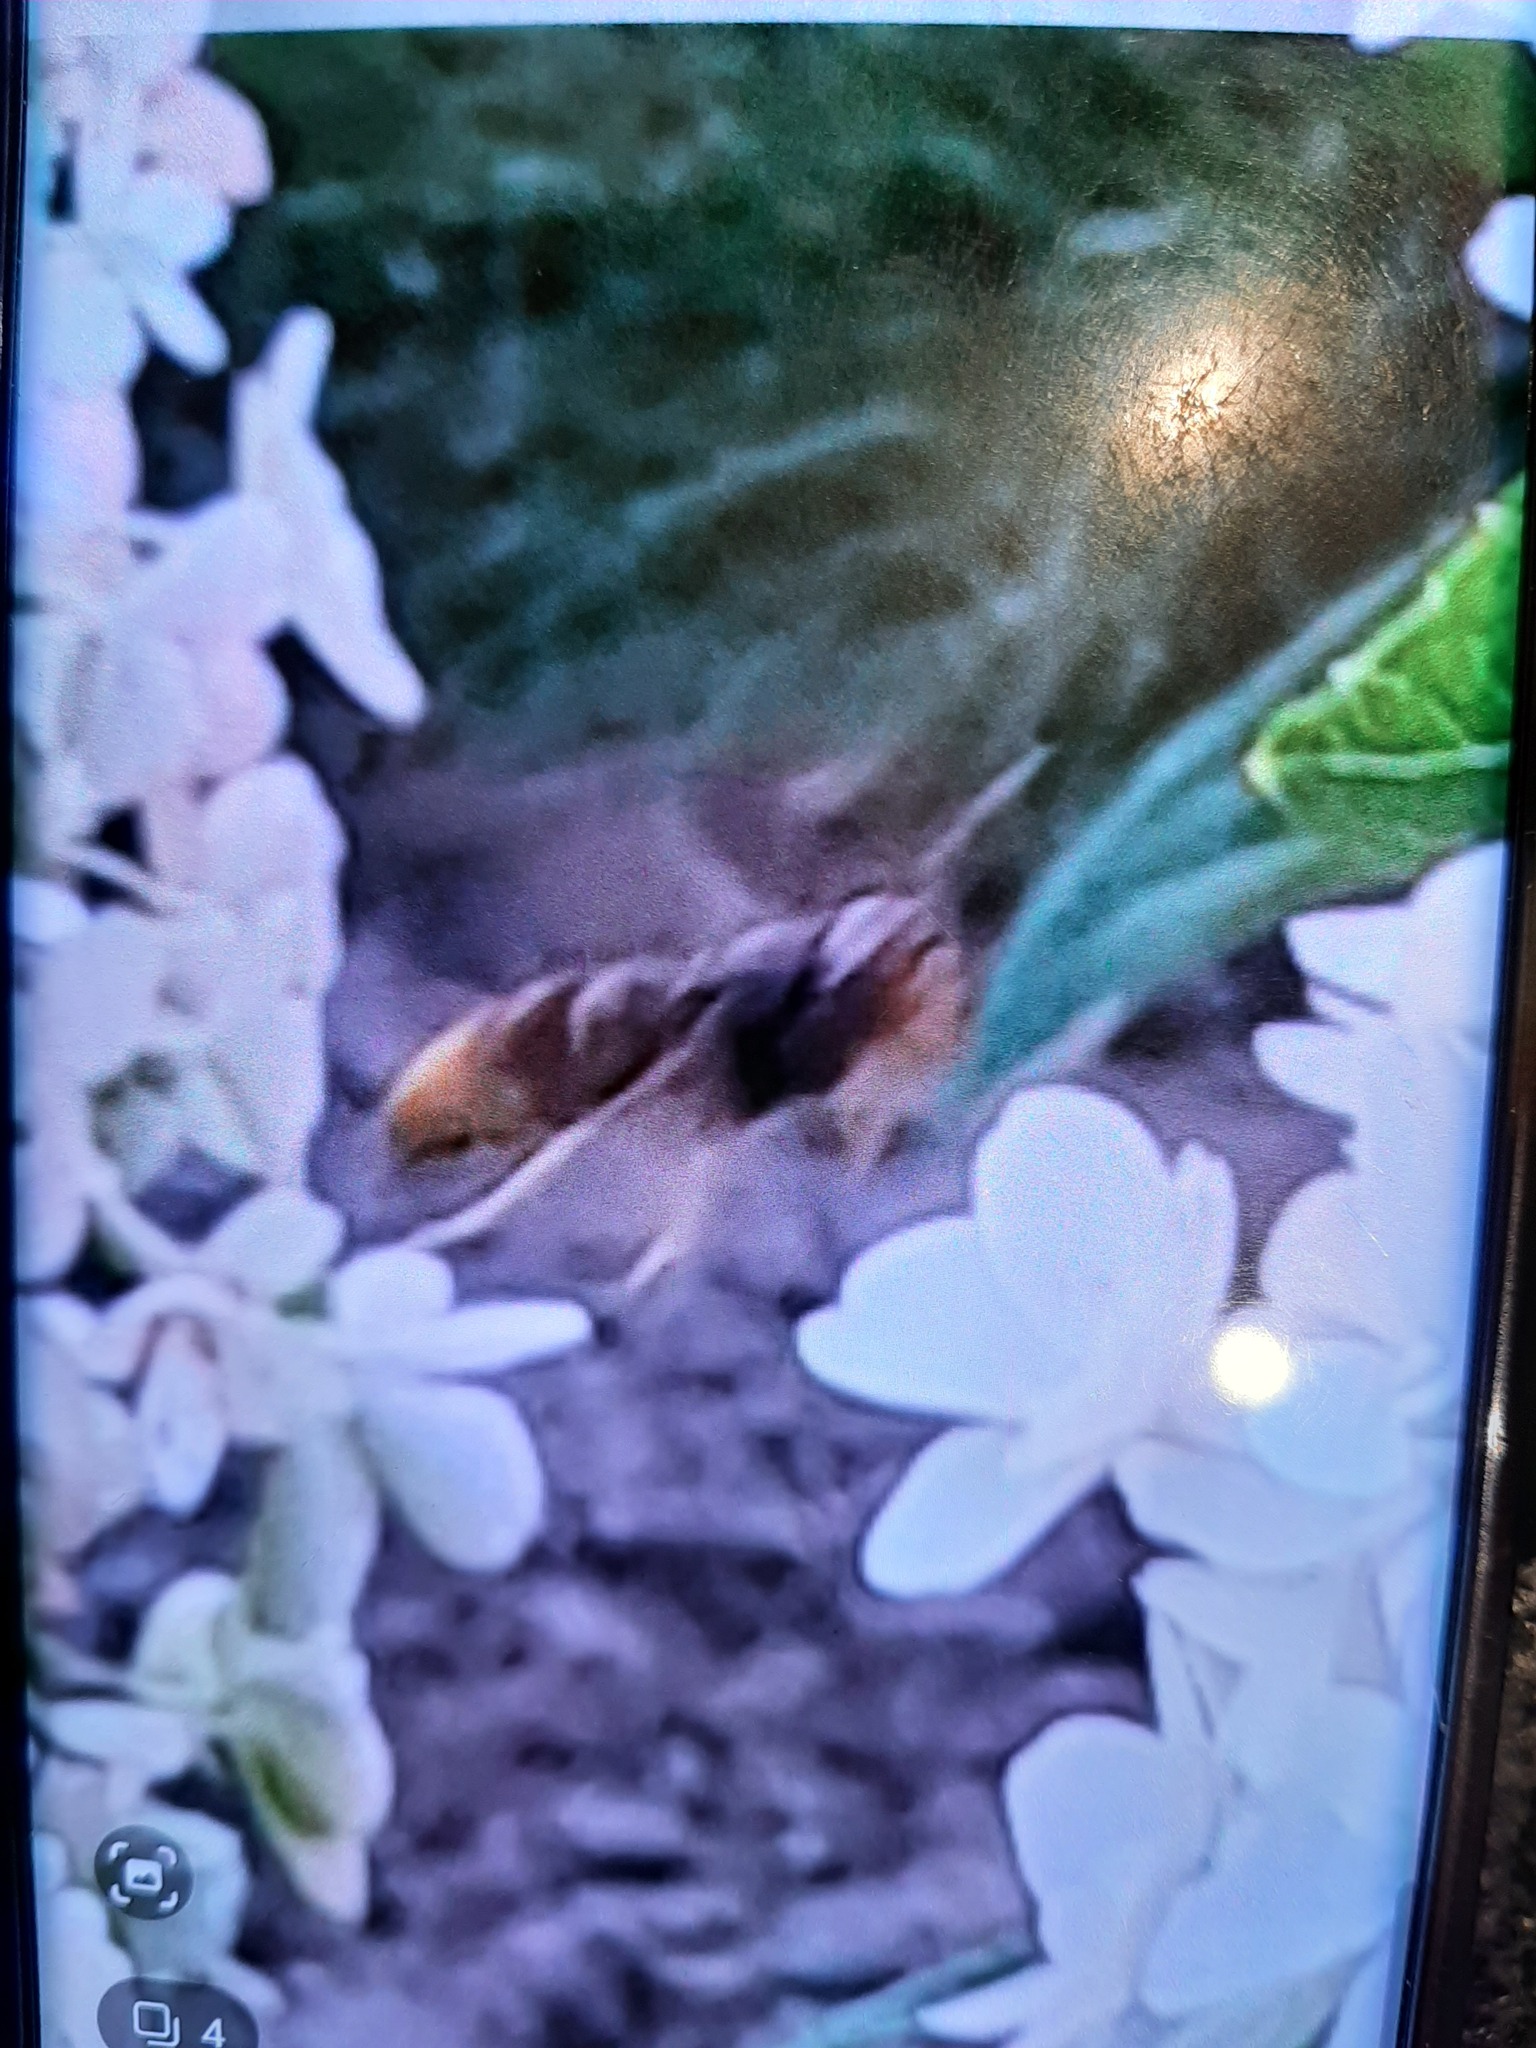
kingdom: Animalia
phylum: Arthropoda
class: Insecta
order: Hymenoptera
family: Vespidae
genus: Vespa
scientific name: Vespa velutina
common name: Asian hornet
